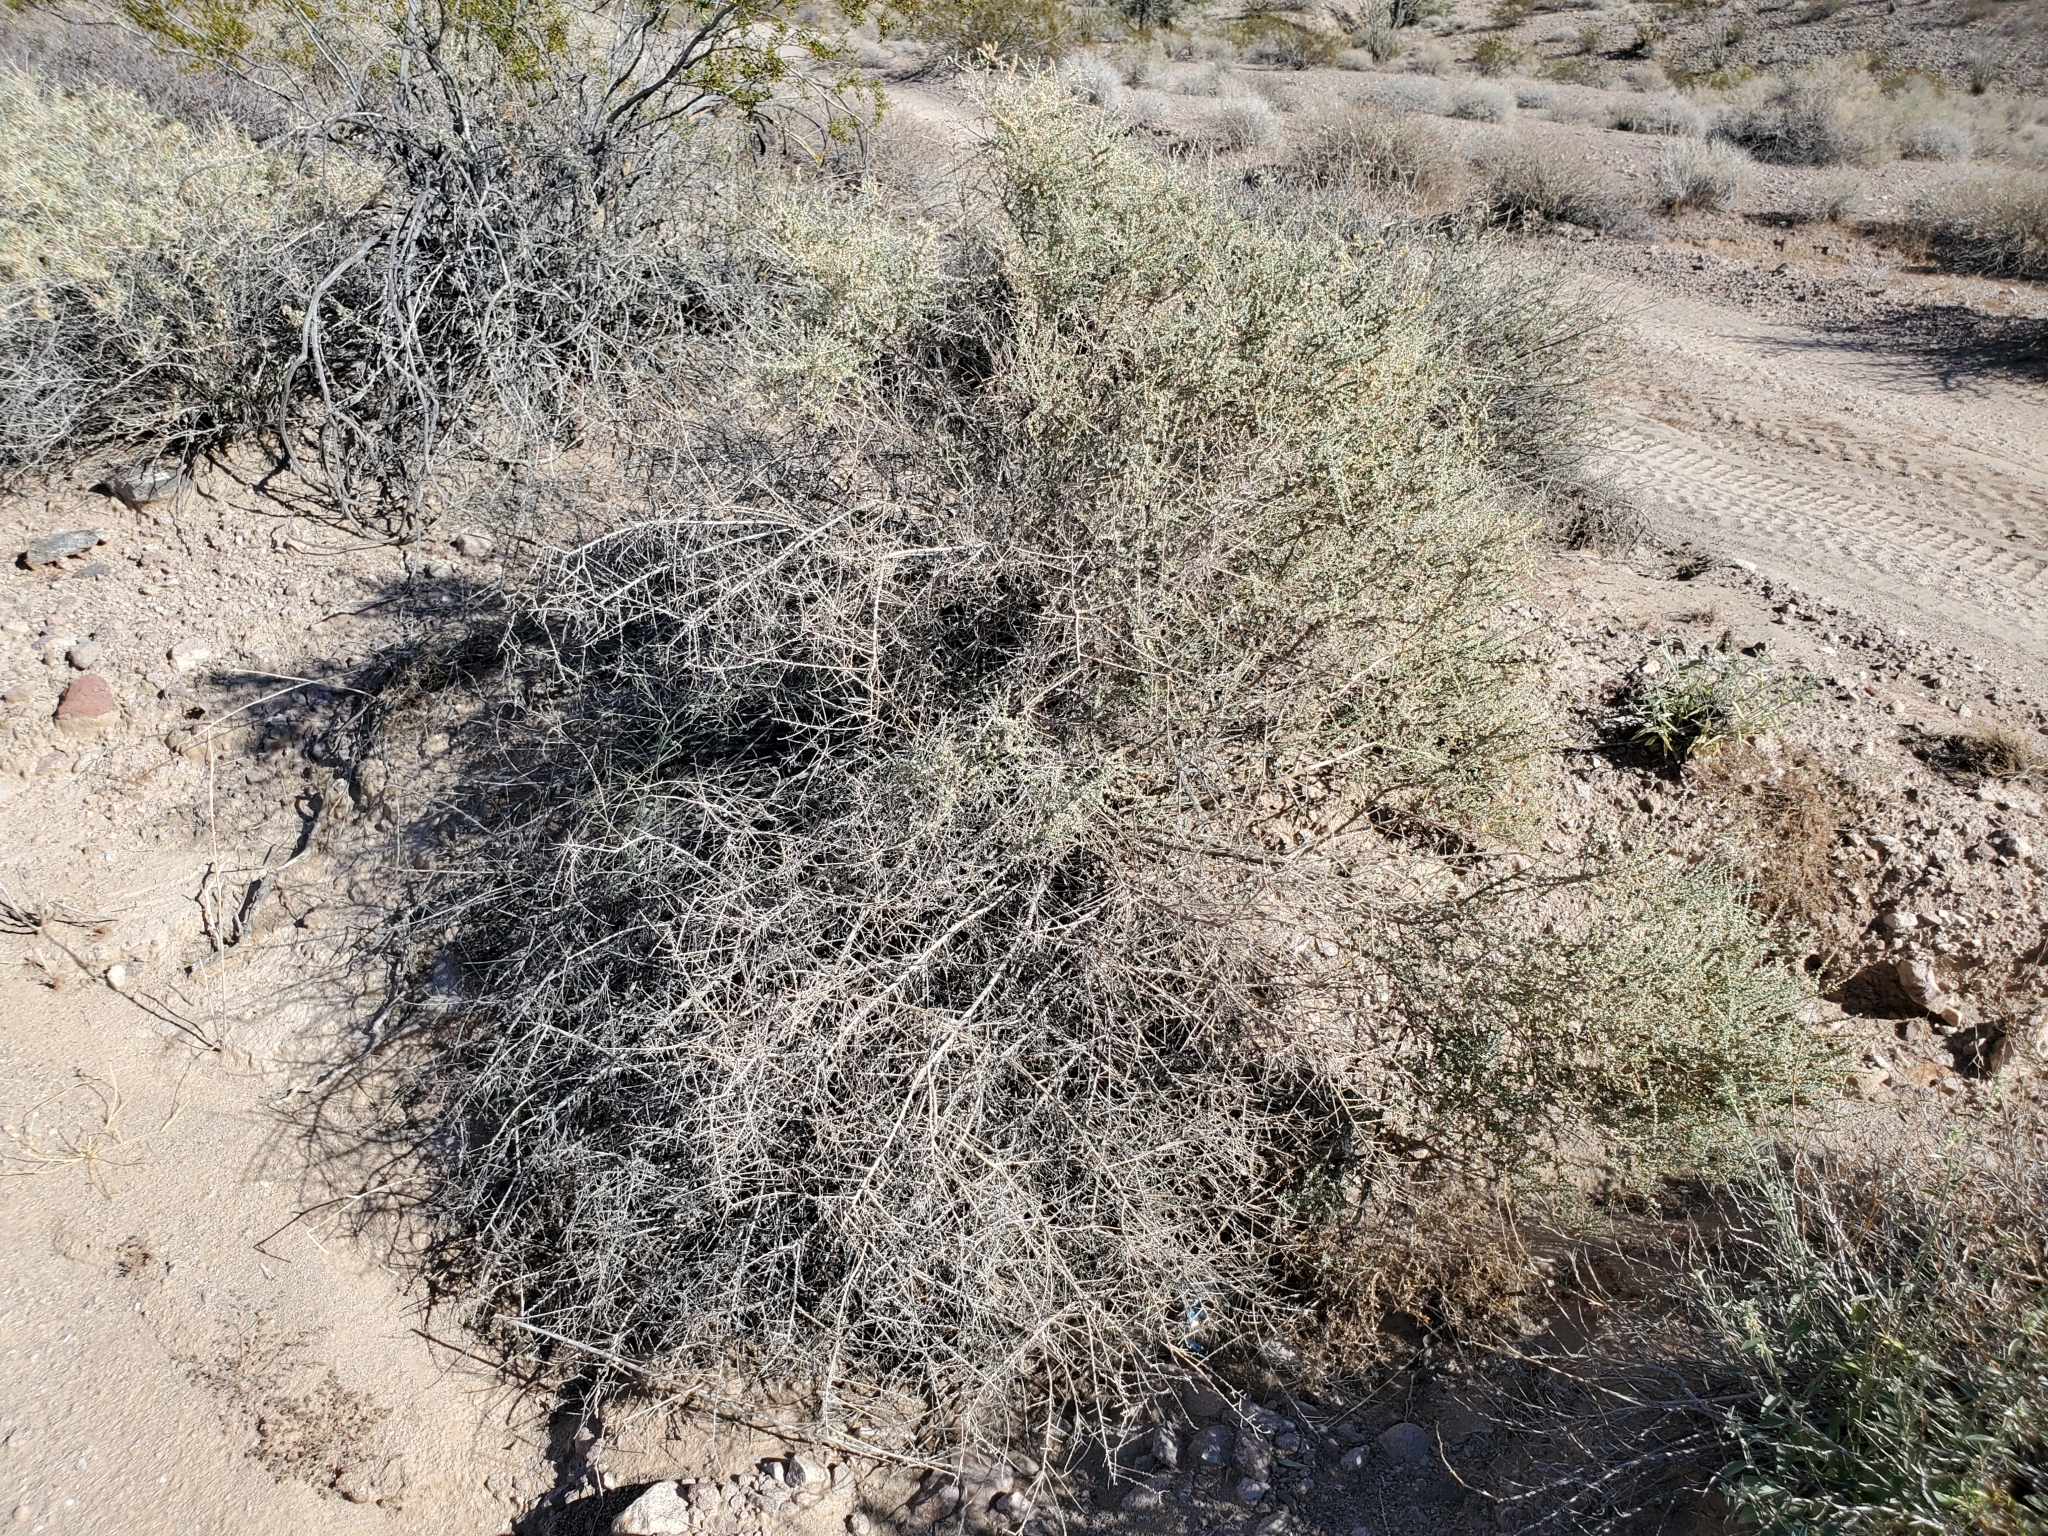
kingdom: Plantae
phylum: Tracheophyta
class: Magnoliopsida
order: Caryophyllales
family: Amaranthaceae
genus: Atriplex
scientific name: Atriplex polycarpa
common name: Desert saltbush
